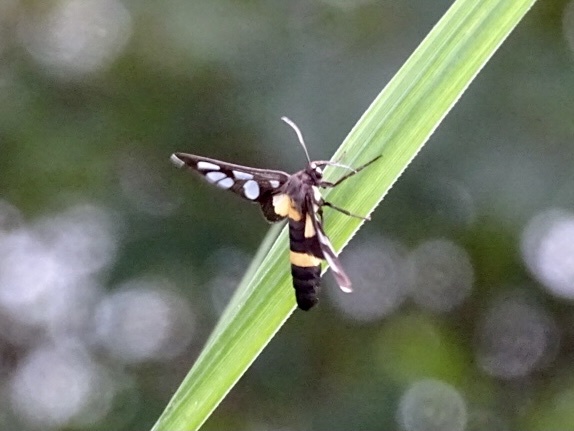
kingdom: Animalia
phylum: Arthropoda
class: Insecta
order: Lepidoptera
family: Erebidae
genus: Amata
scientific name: Amata sperbius
